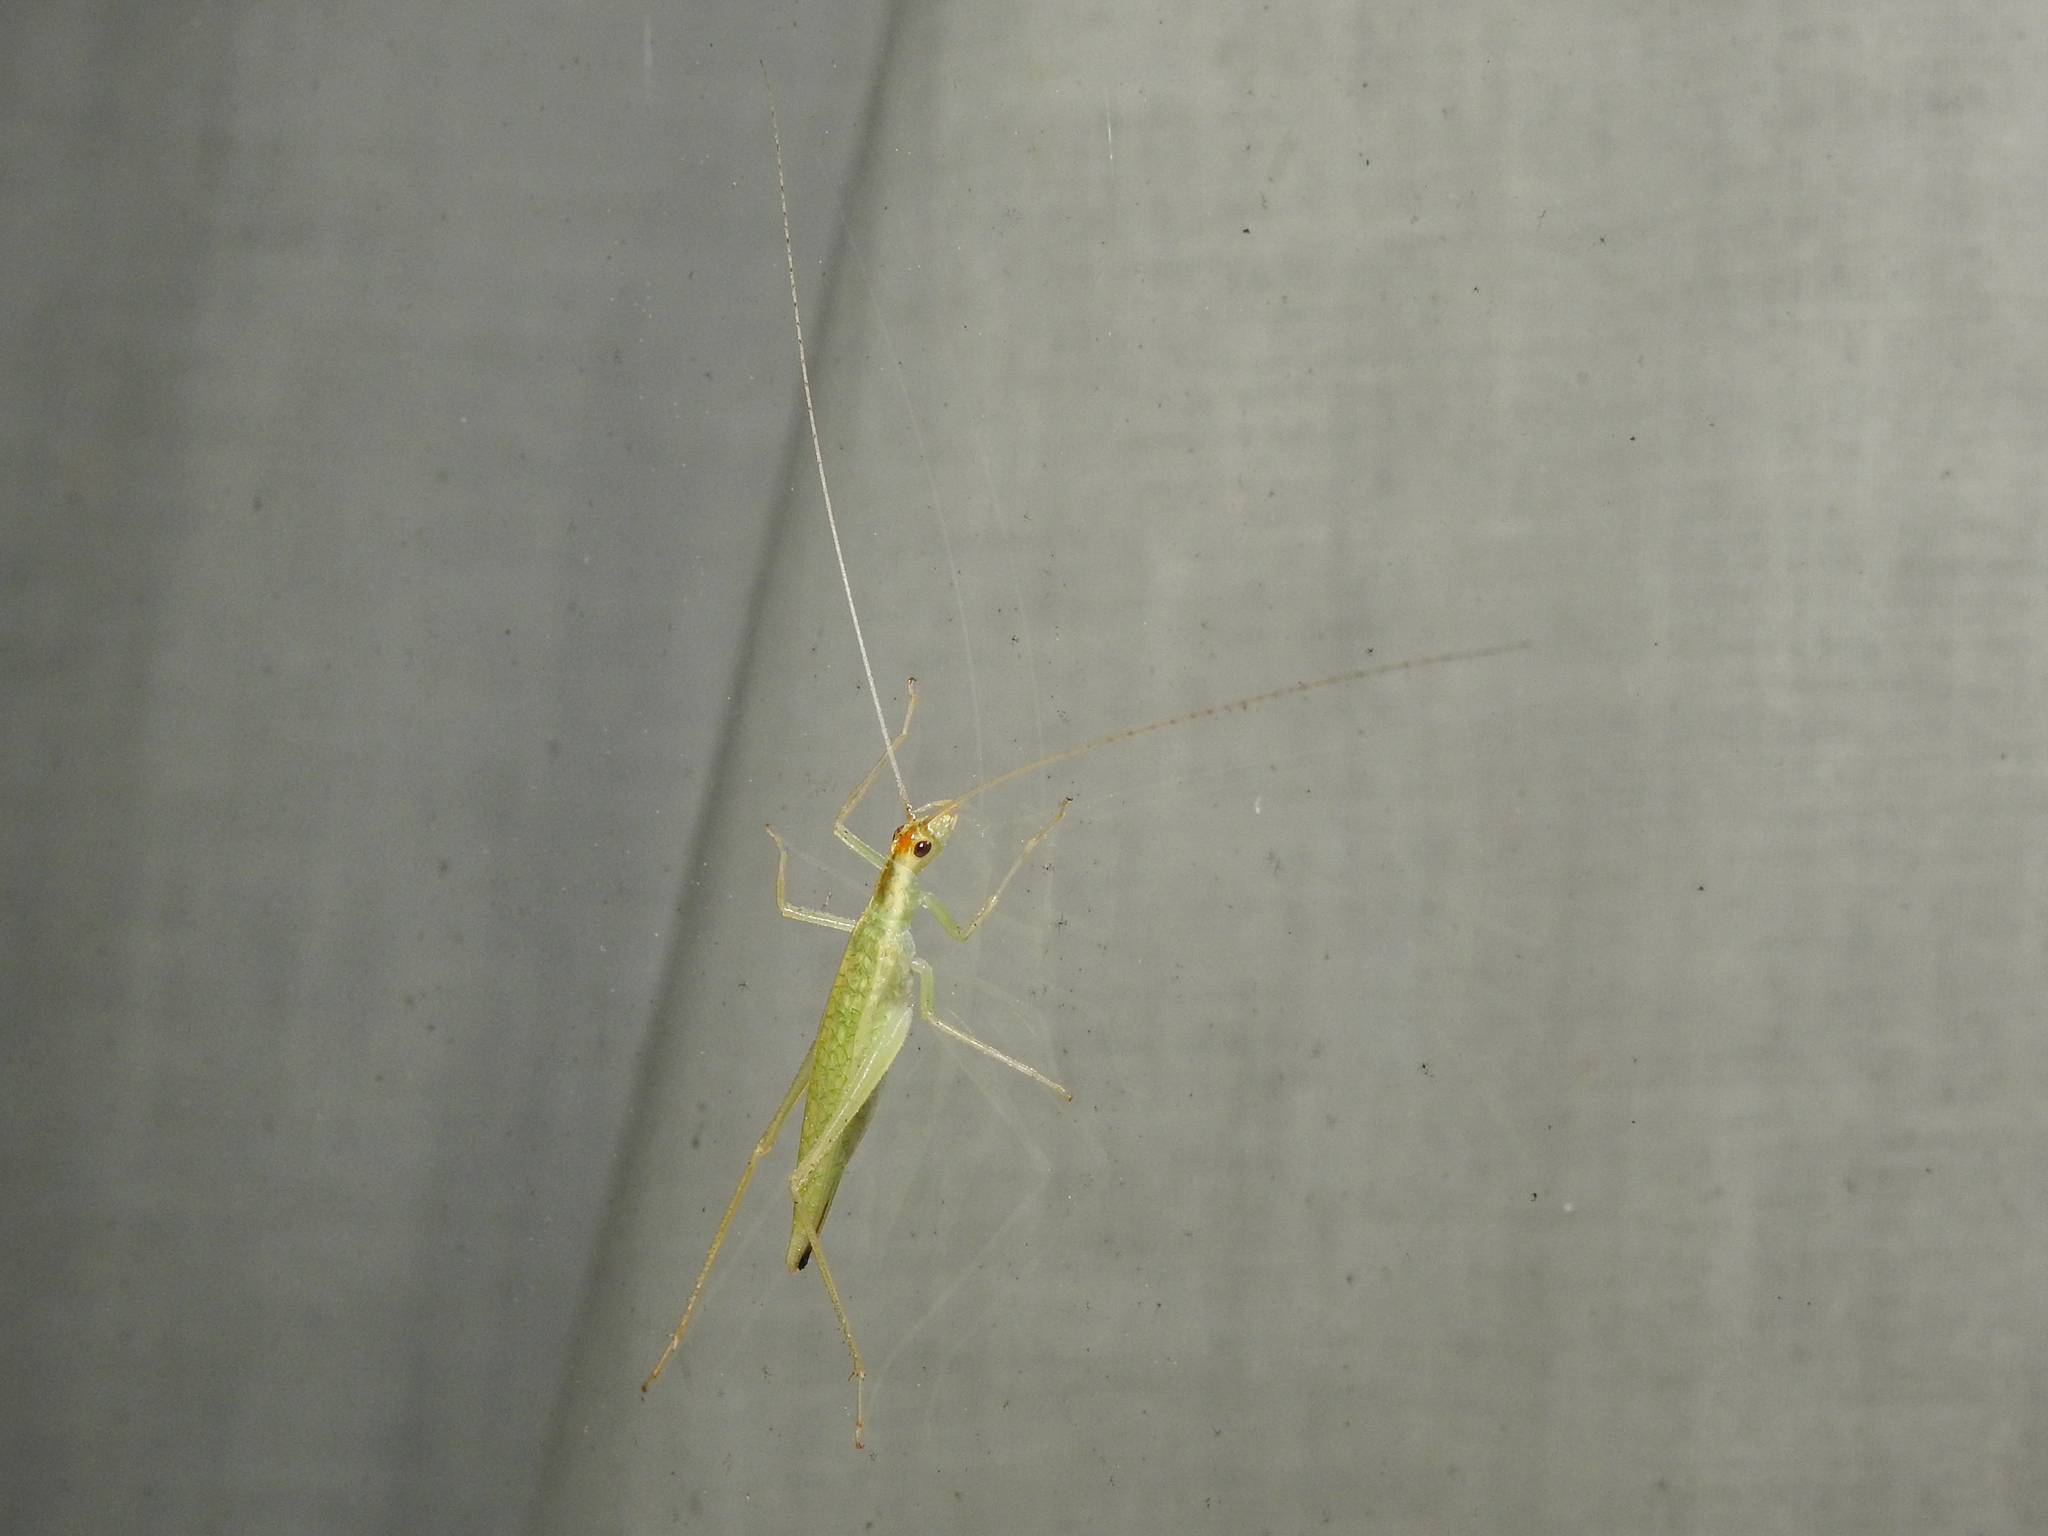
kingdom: Animalia
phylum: Arthropoda
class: Insecta
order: Orthoptera
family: Gryllidae
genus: Oecanthus
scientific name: Oecanthus niveus
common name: Narrow-winged tree cricket
